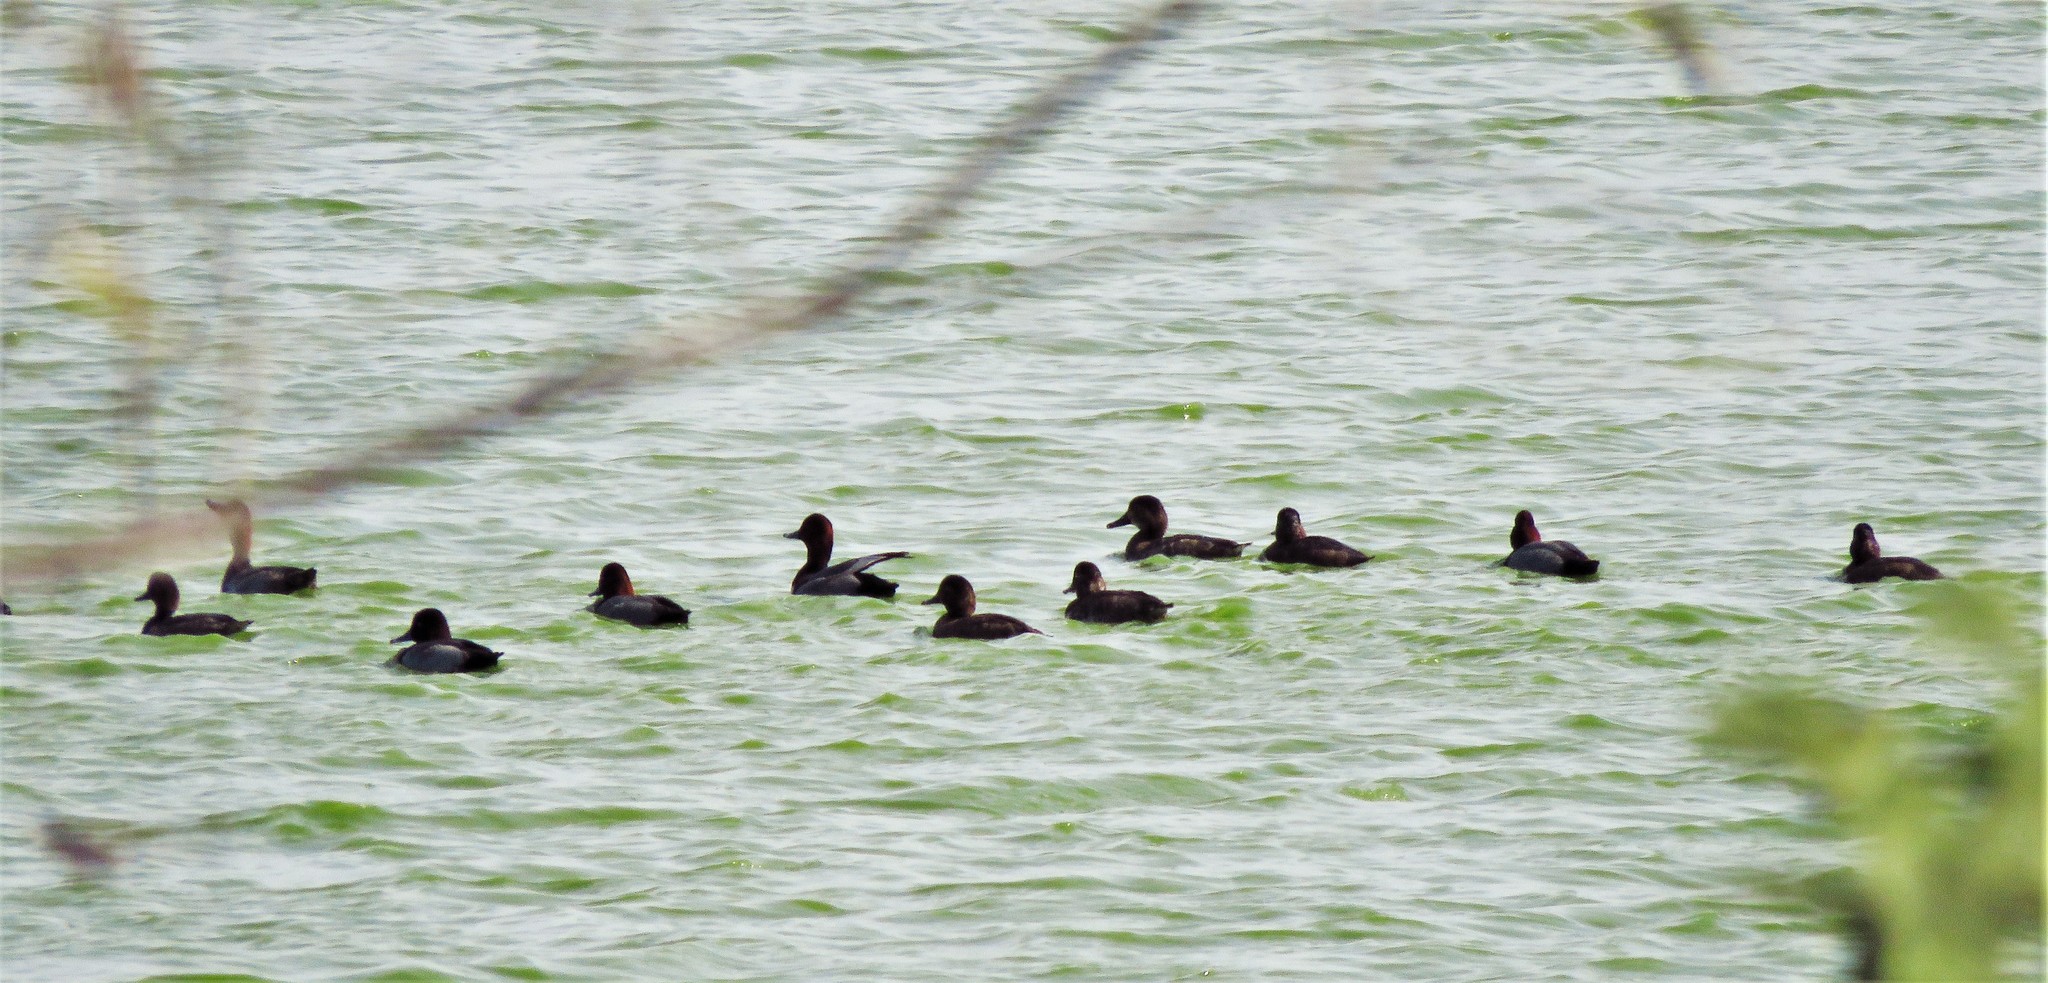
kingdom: Animalia
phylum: Chordata
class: Aves
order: Anseriformes
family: Anatidae
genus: Aythya
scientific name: Aythya americana
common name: Redhead
